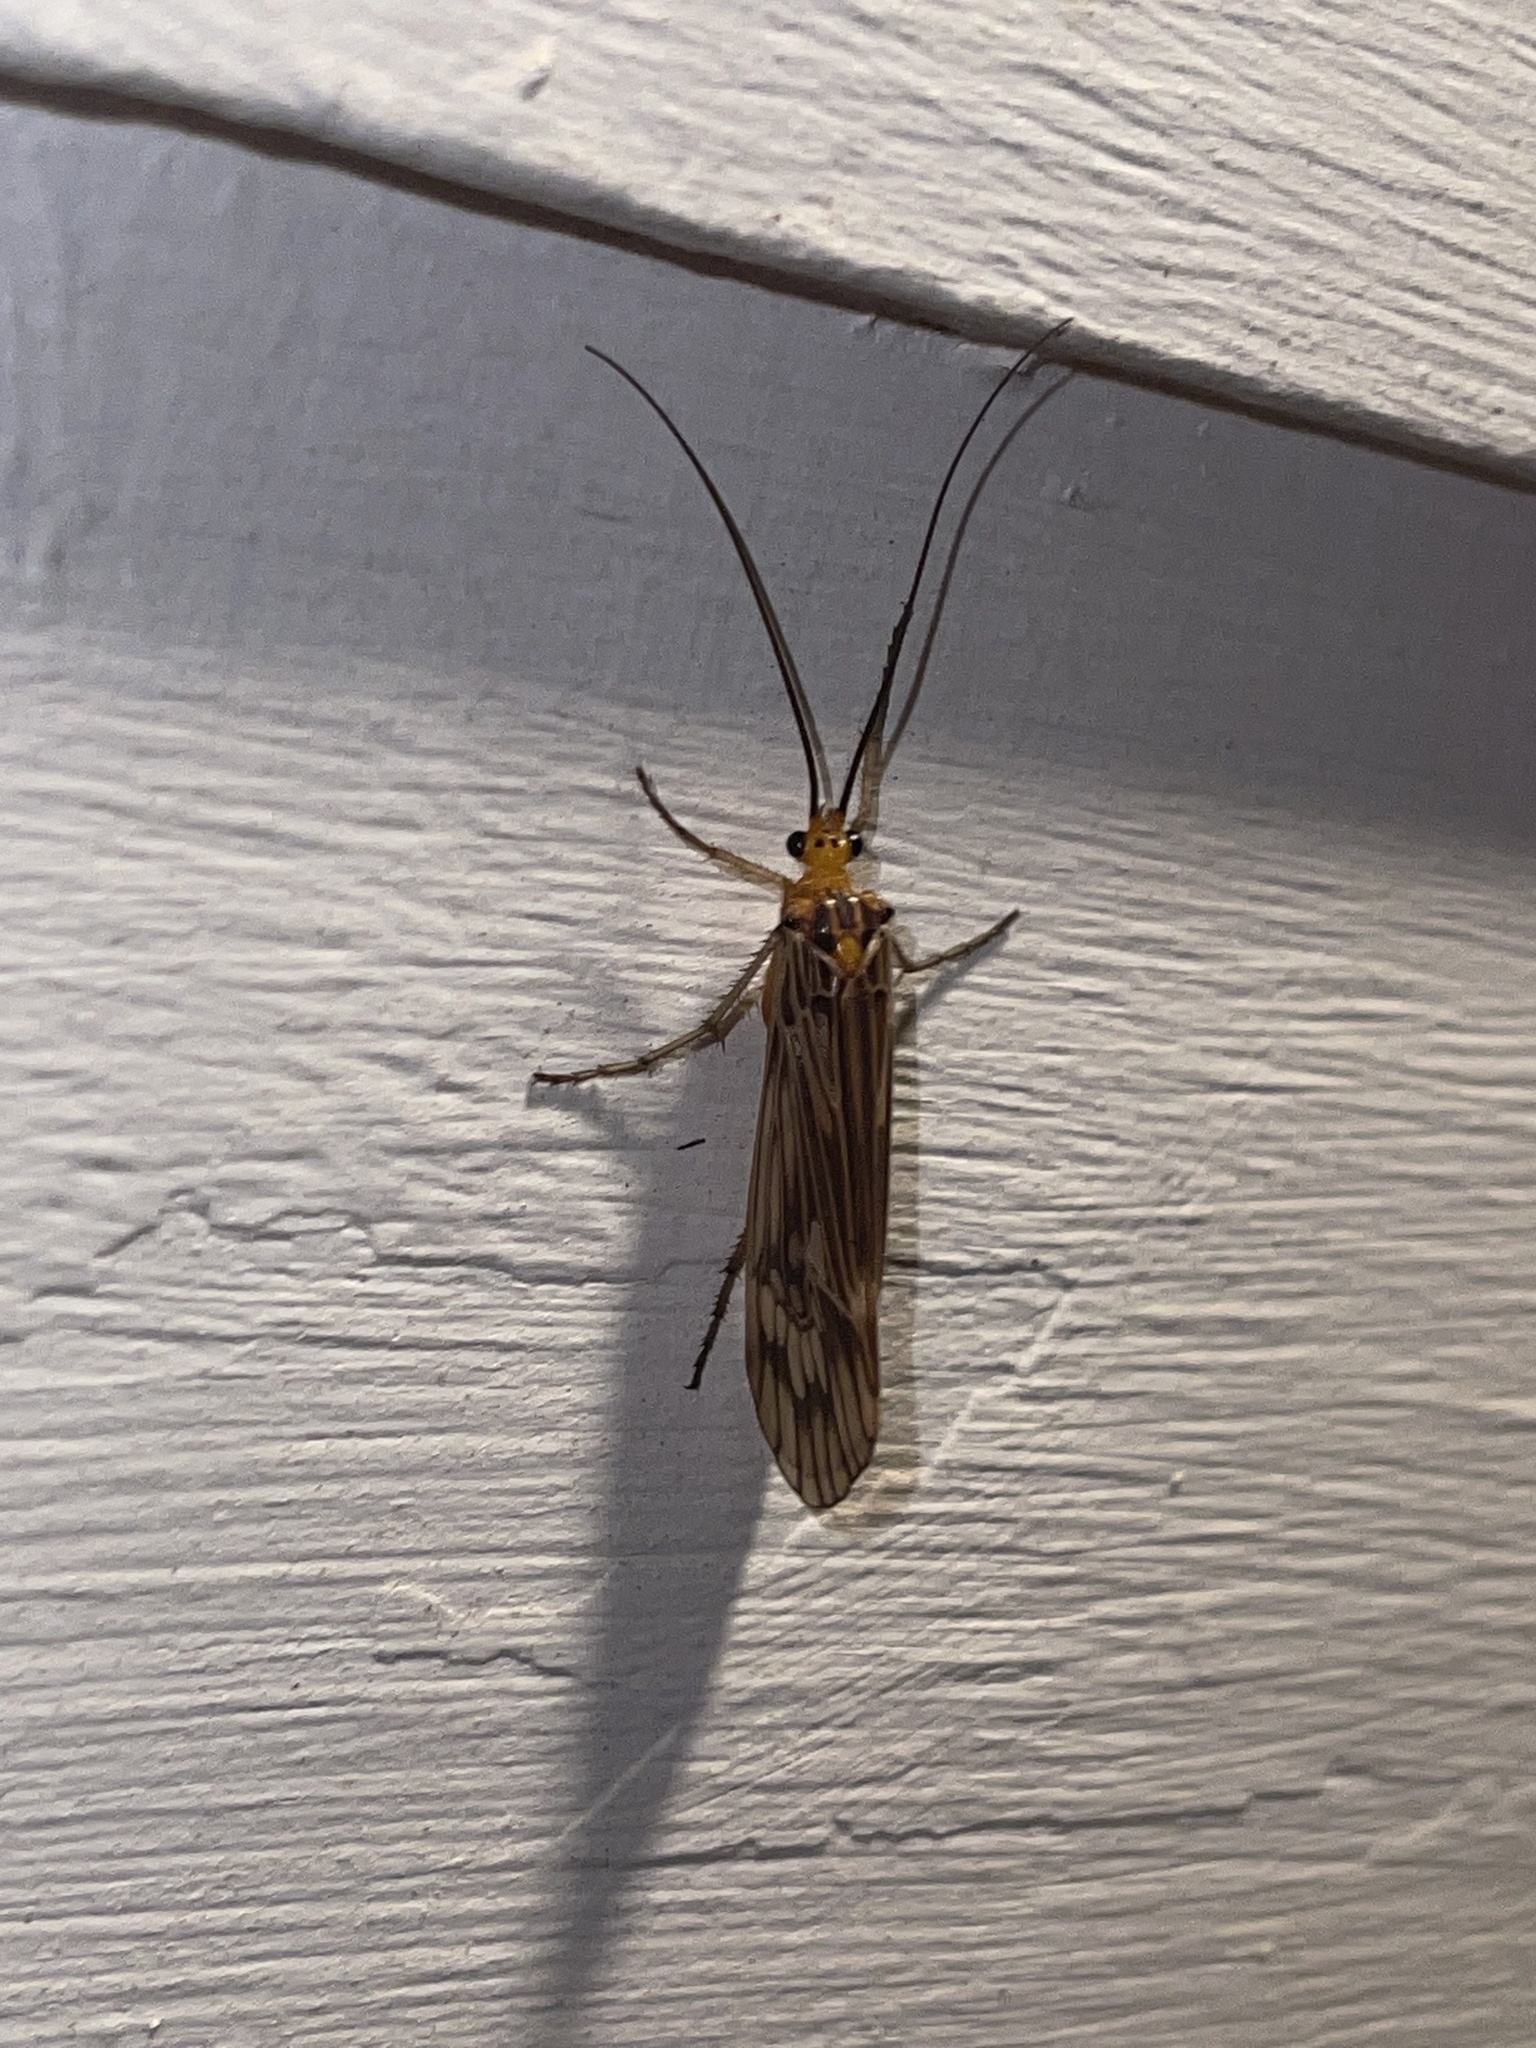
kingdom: Animalia
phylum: Arthropoda
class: Insecta
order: Trichoptera
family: Limnephilidae
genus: Hydatophylax
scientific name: Hydatophylax argus
